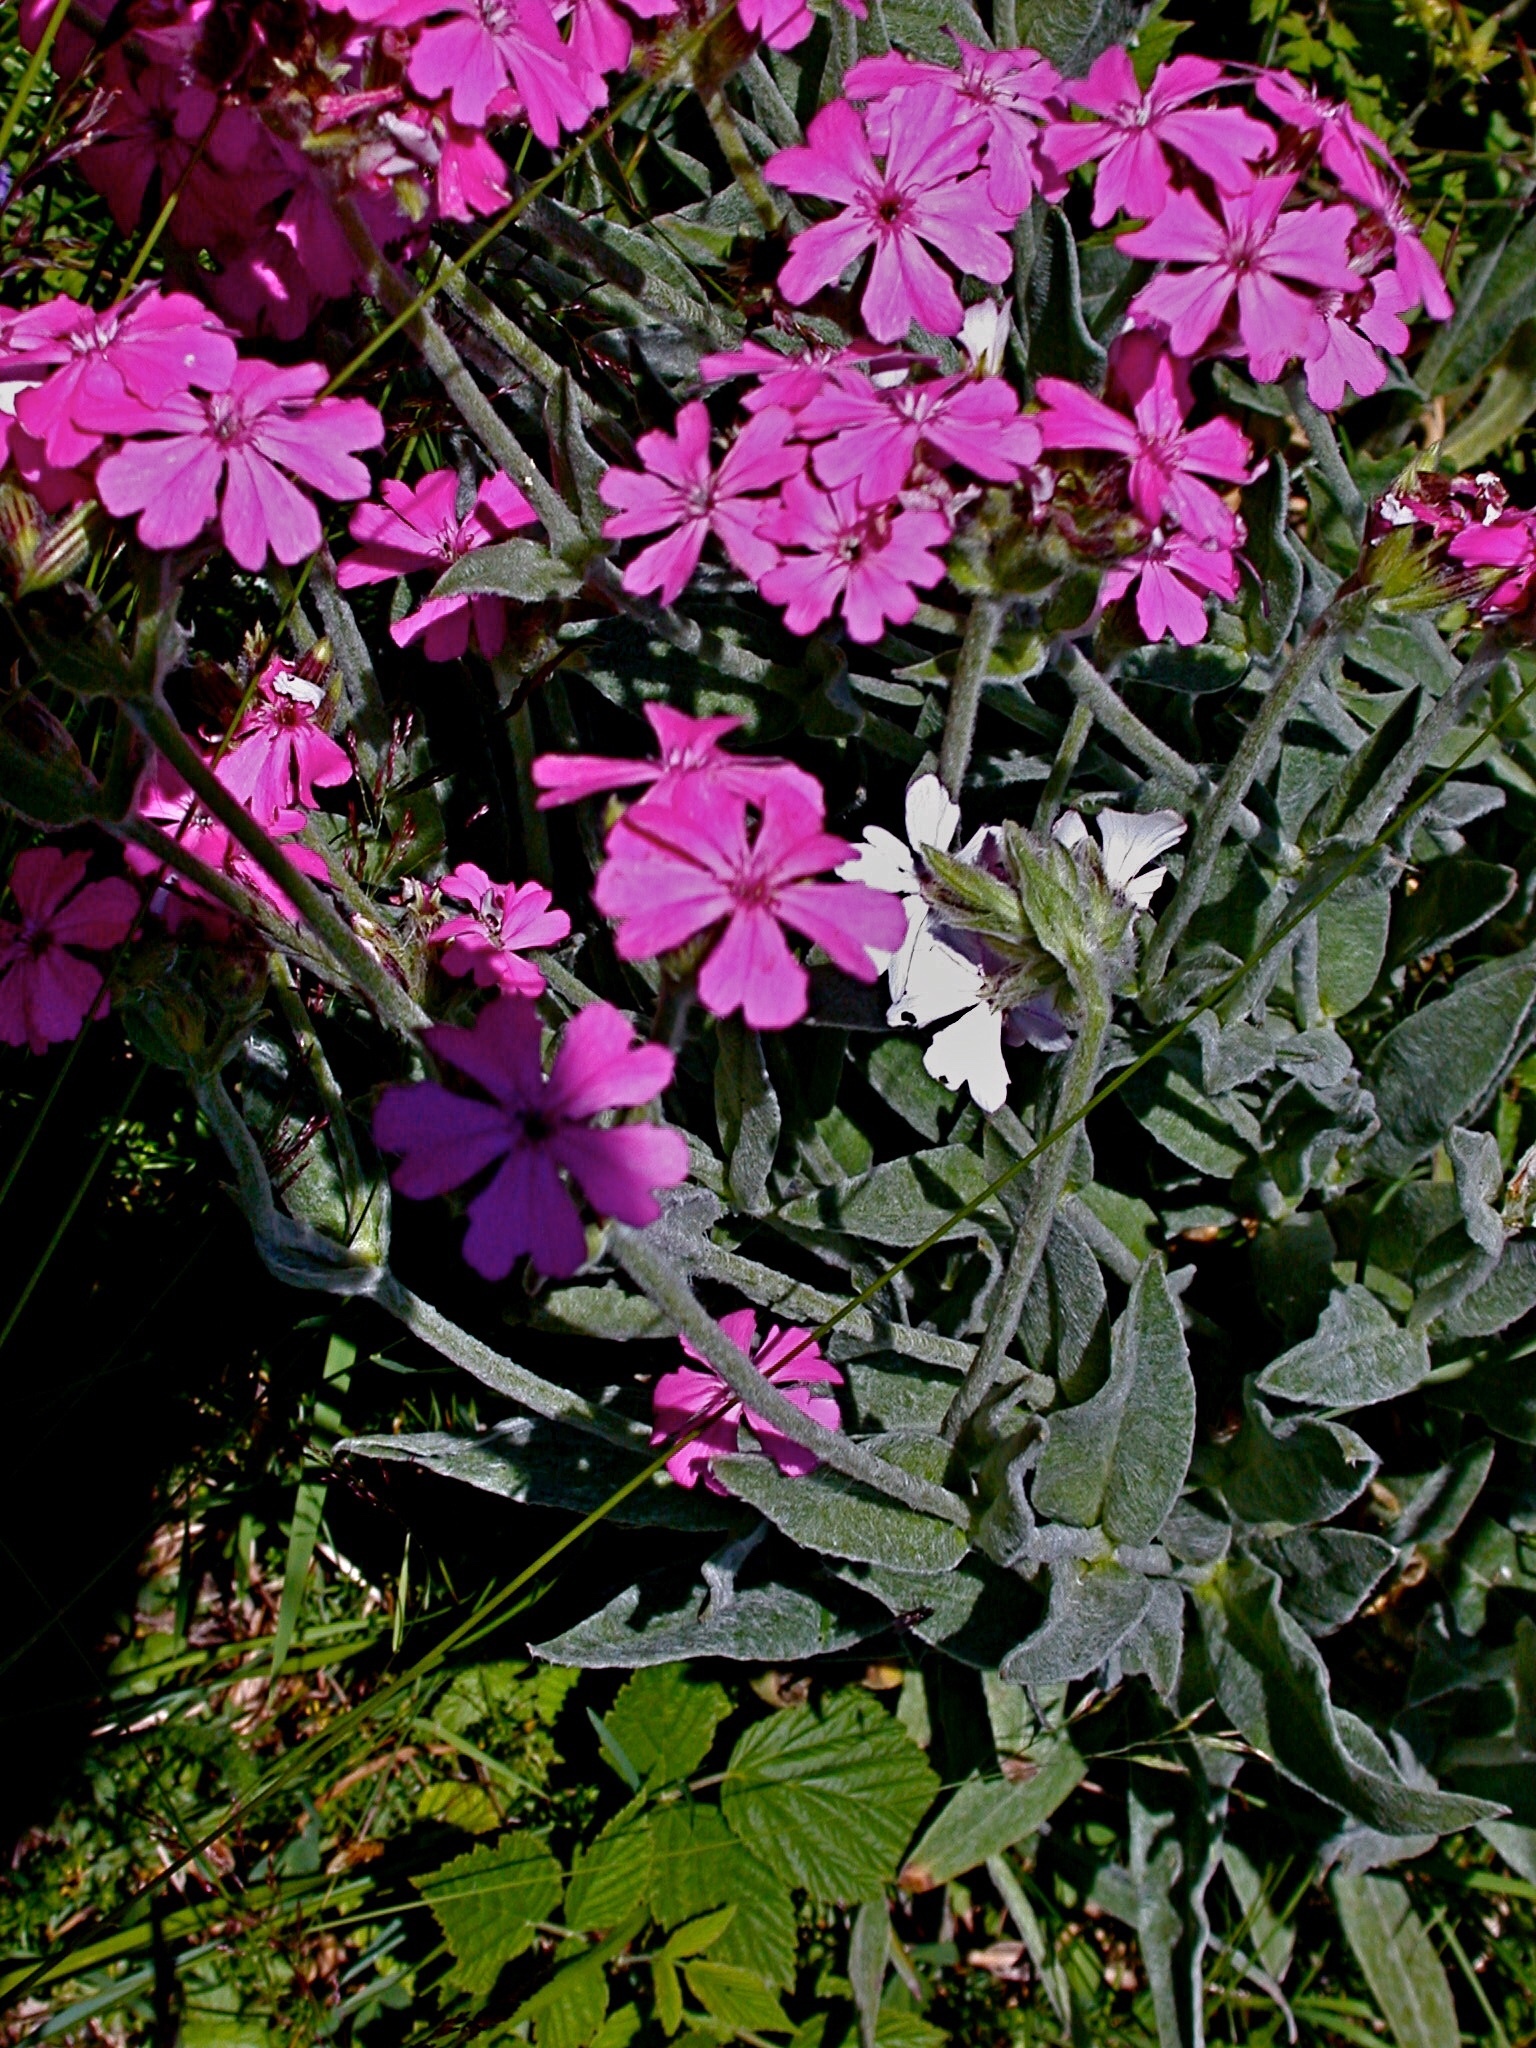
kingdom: Plantae
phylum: Tracheophyta
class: Magnoliopsida
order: Caryophyllales
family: Caryophyllaceae
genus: Silene
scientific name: Silene flos-jovis
